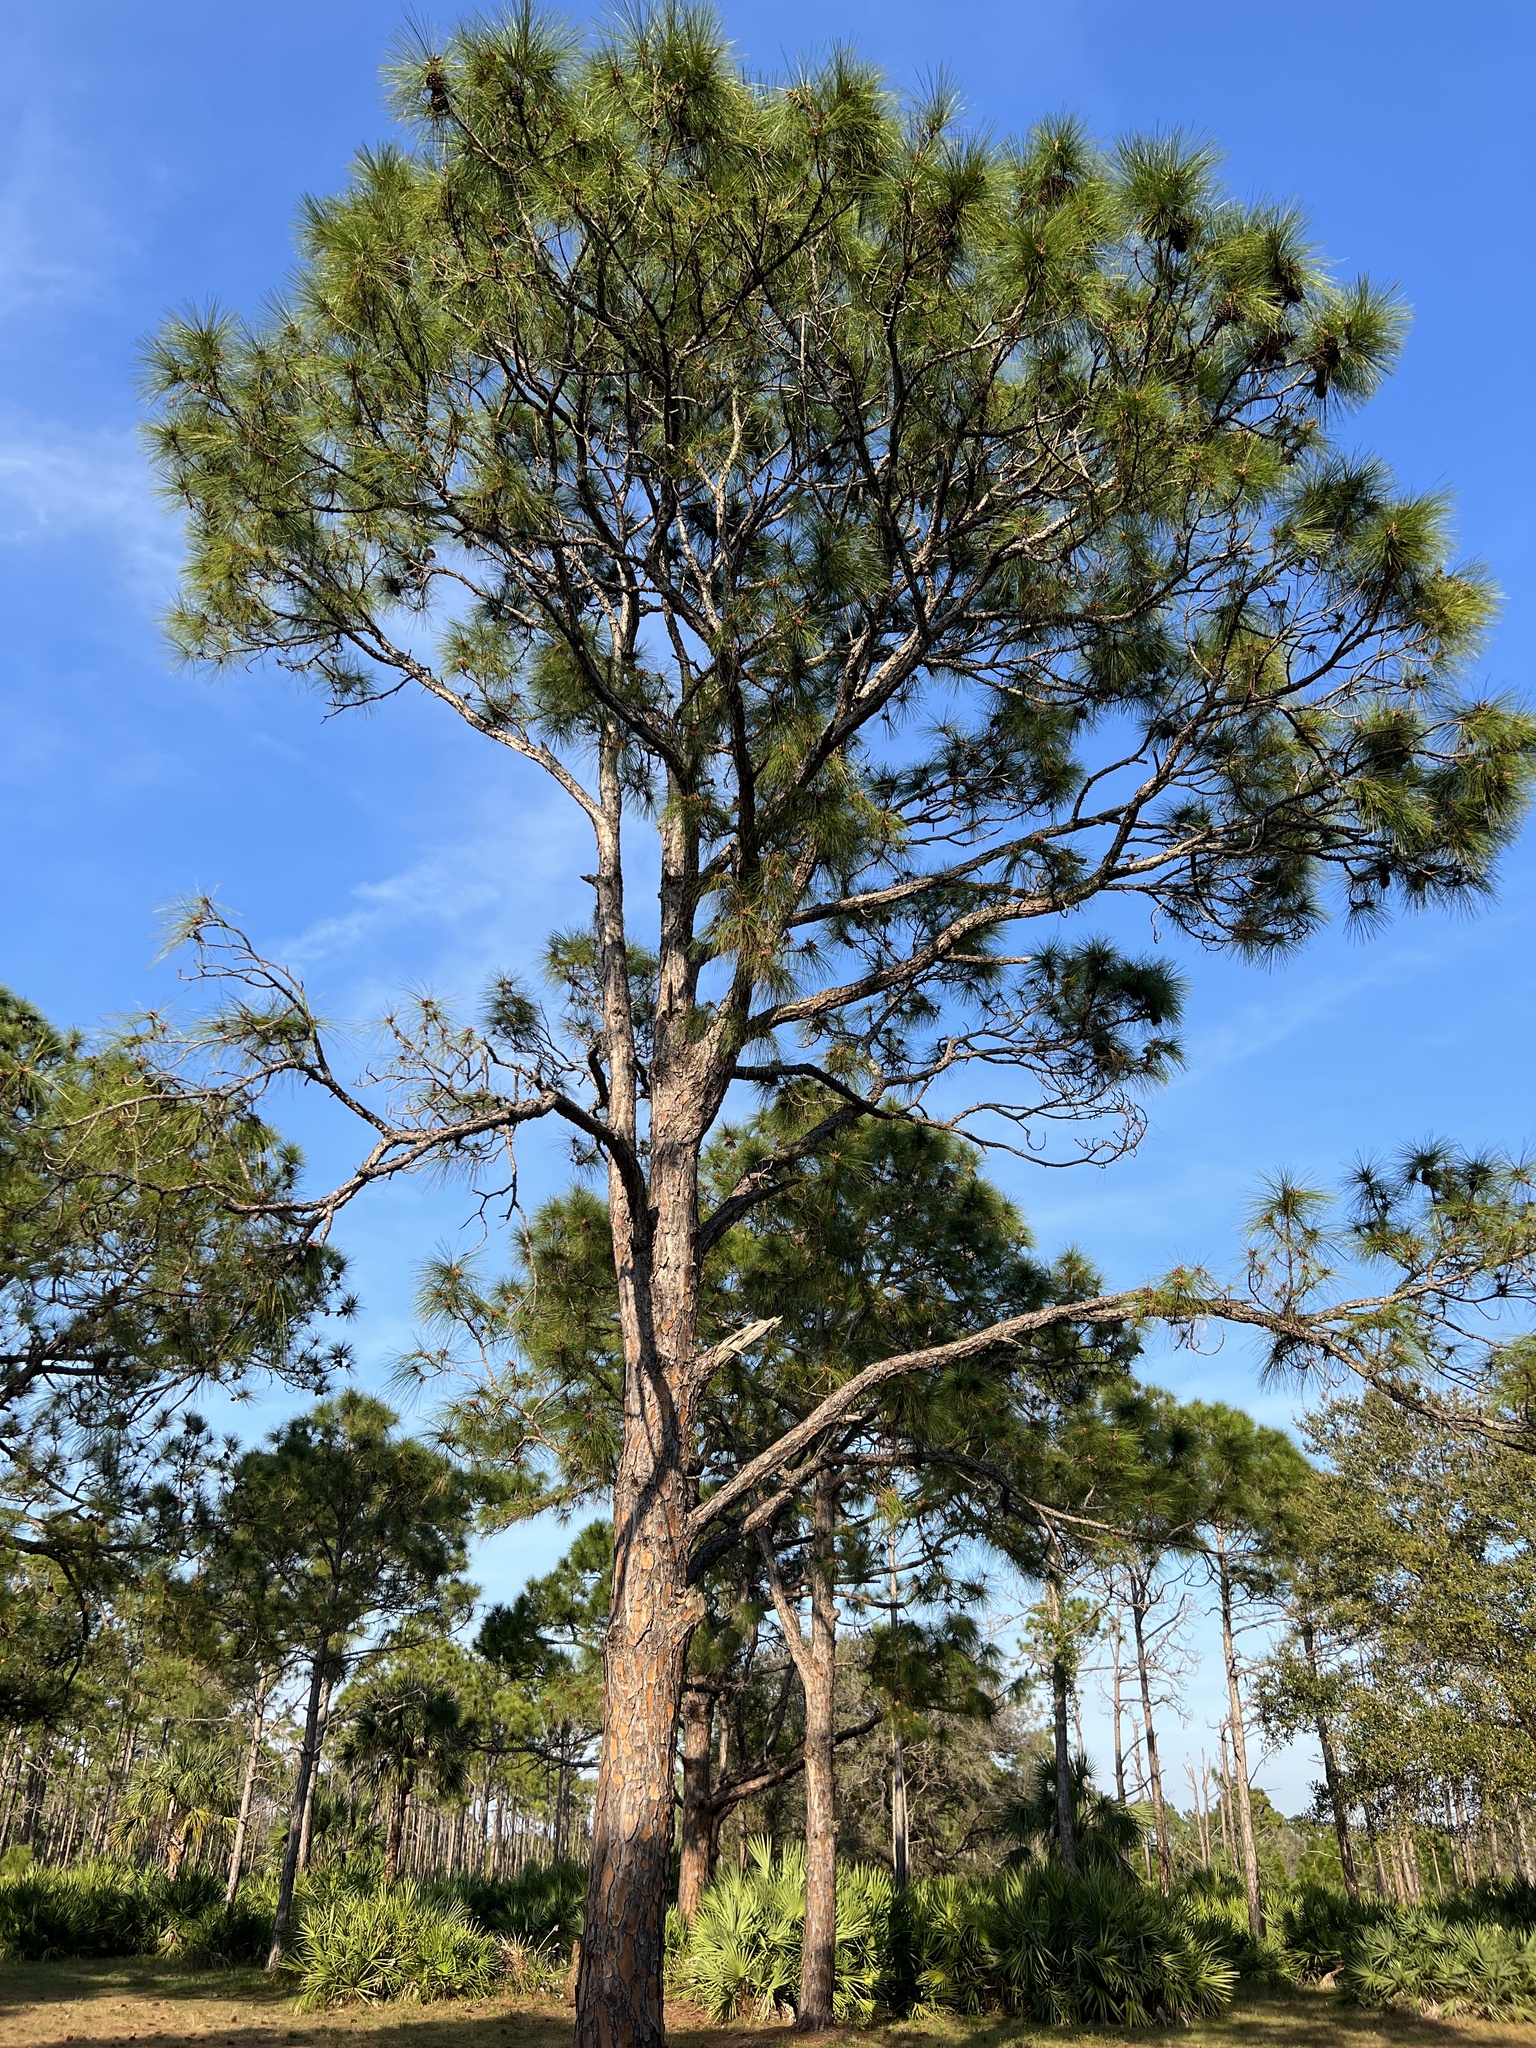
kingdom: Plantae
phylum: Tracheophyta
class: Pinopsida
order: Pinales
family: Pinaceae
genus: Pinus
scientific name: Pinus elliottii
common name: Slash pine
